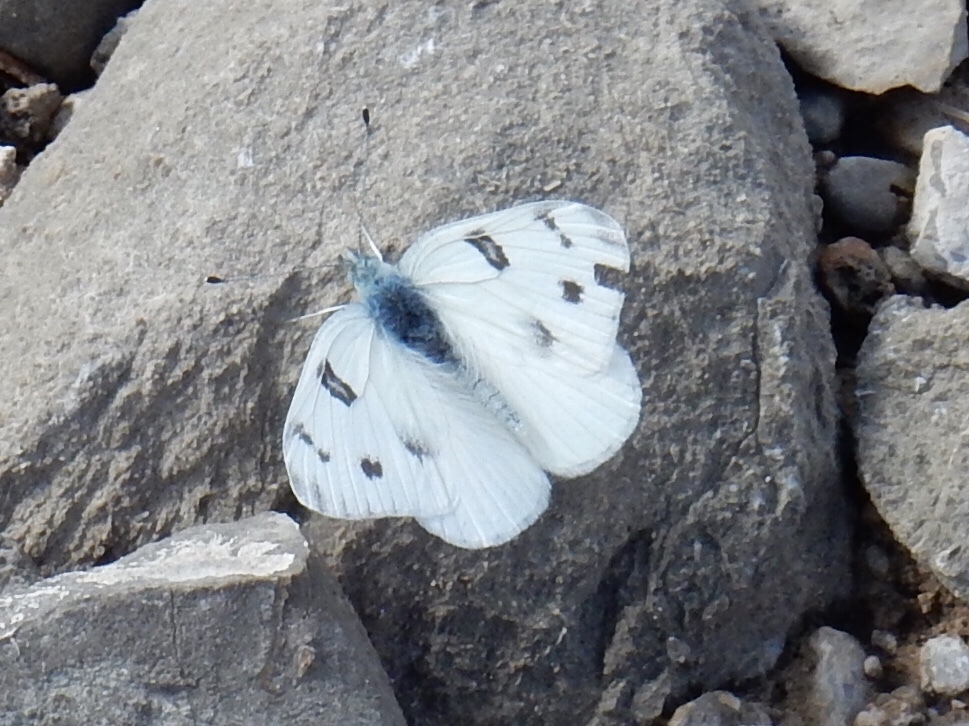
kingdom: Animalia
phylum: Arthropoda
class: Insecta
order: Lepidoptera
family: Pieridae
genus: Pontia
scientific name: Pontia protodice
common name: Checkered white
